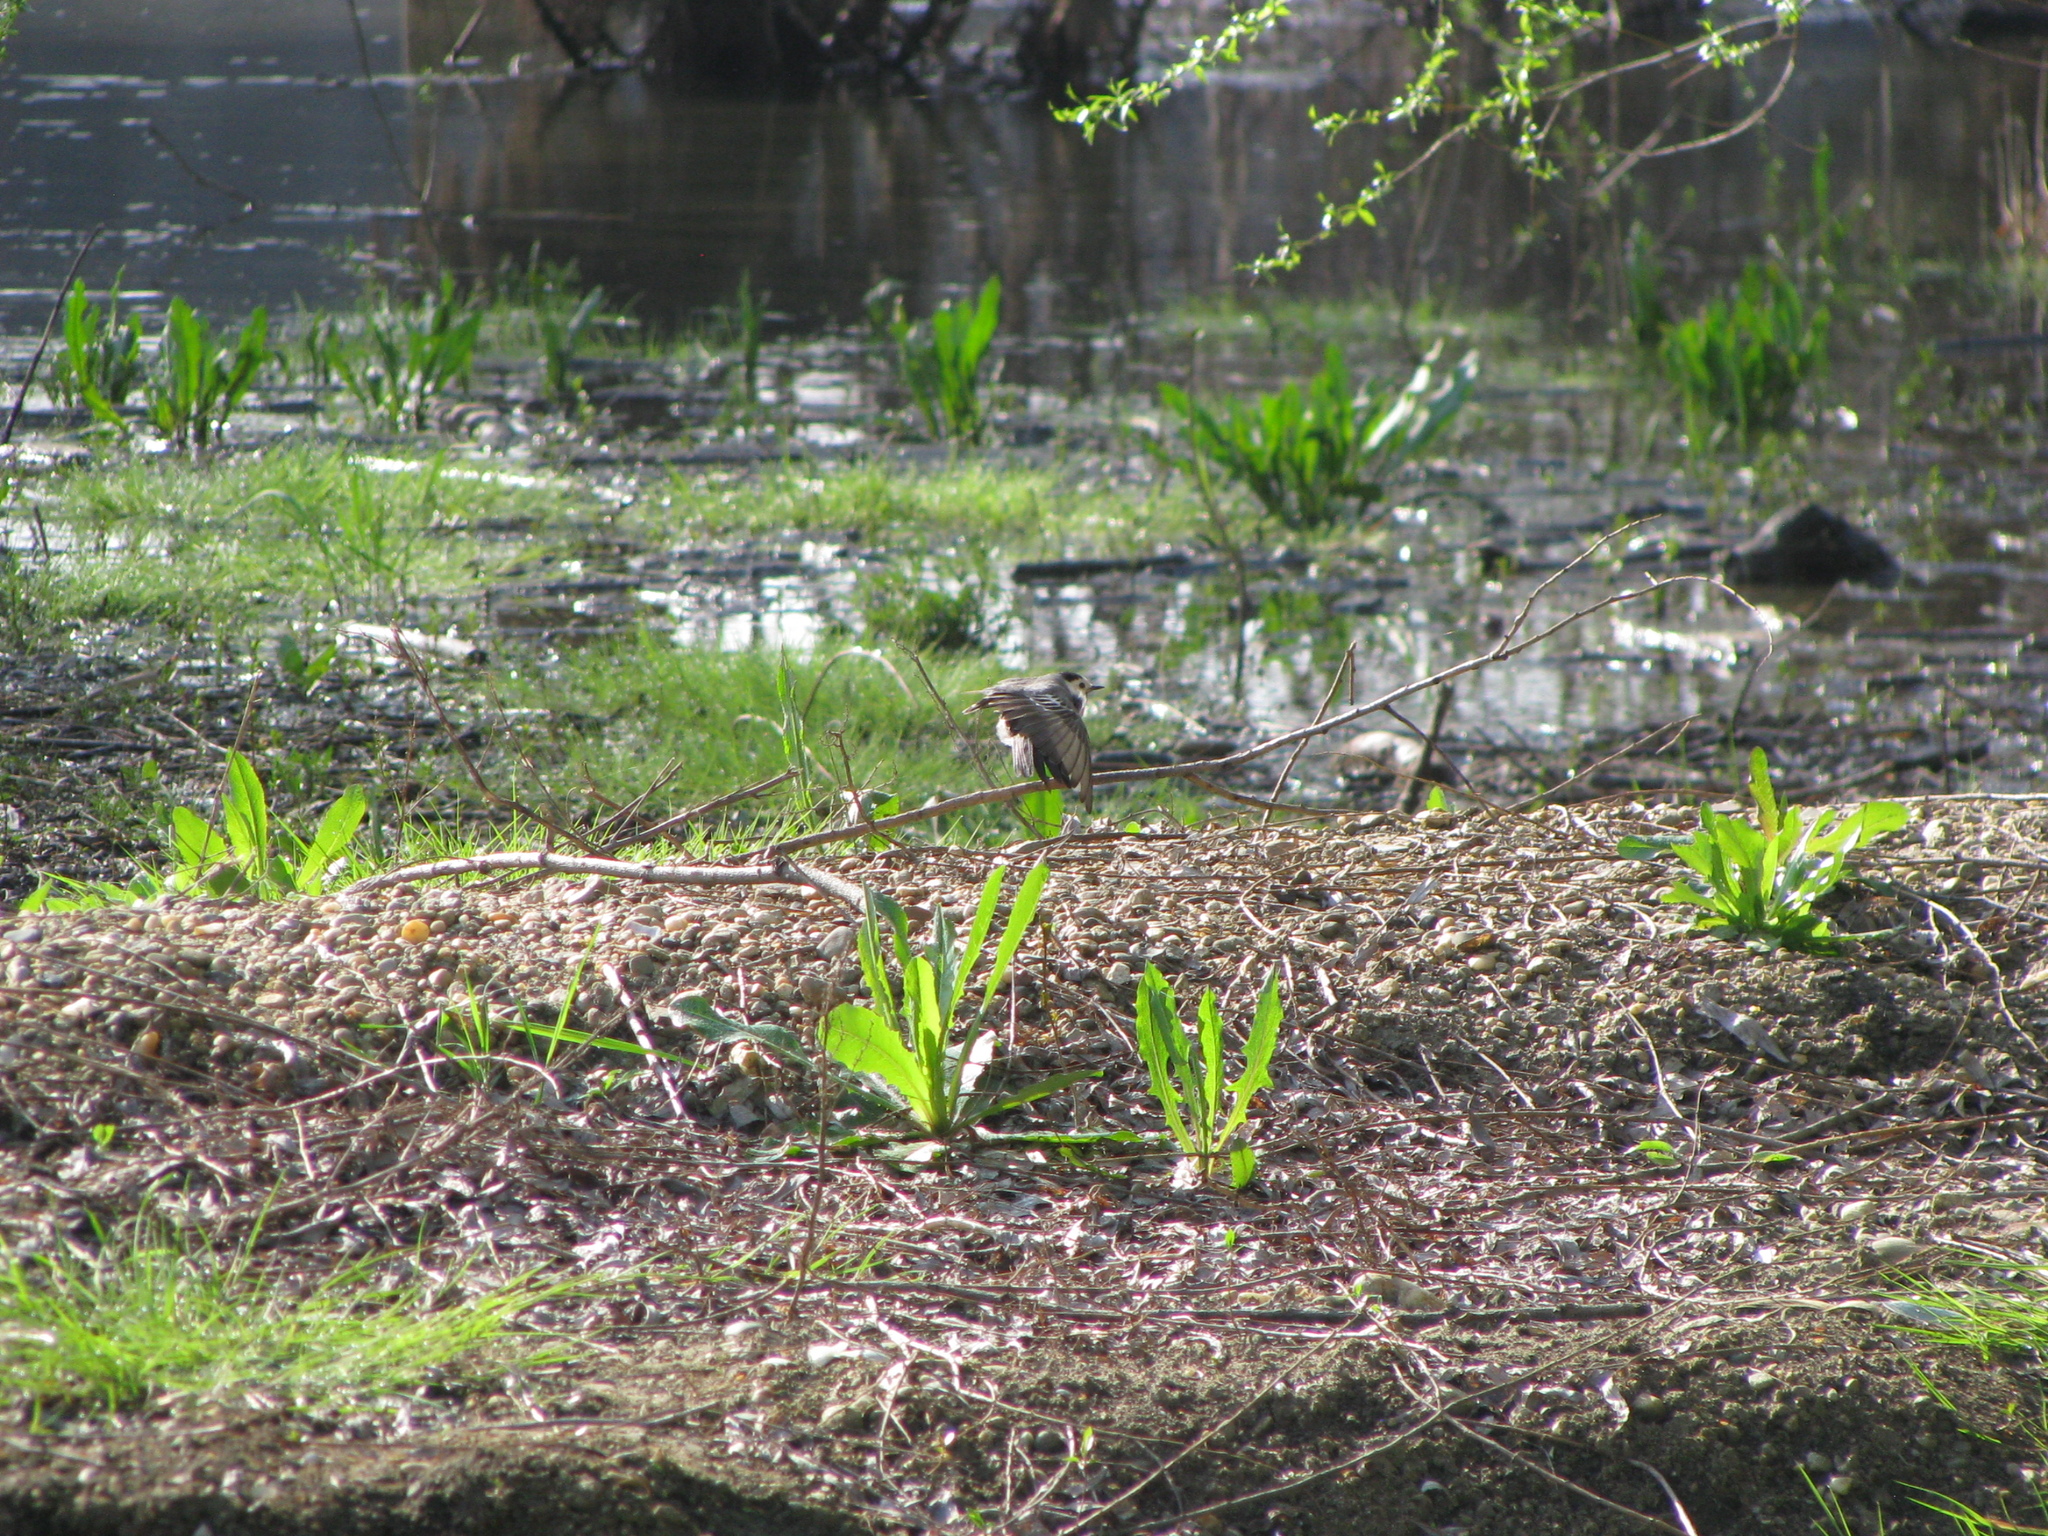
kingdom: Animalia
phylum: Chordata
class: Aves
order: Passeriformes
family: Motacillidae
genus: Motacilla
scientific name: Motacilla alba
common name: White wagtail
